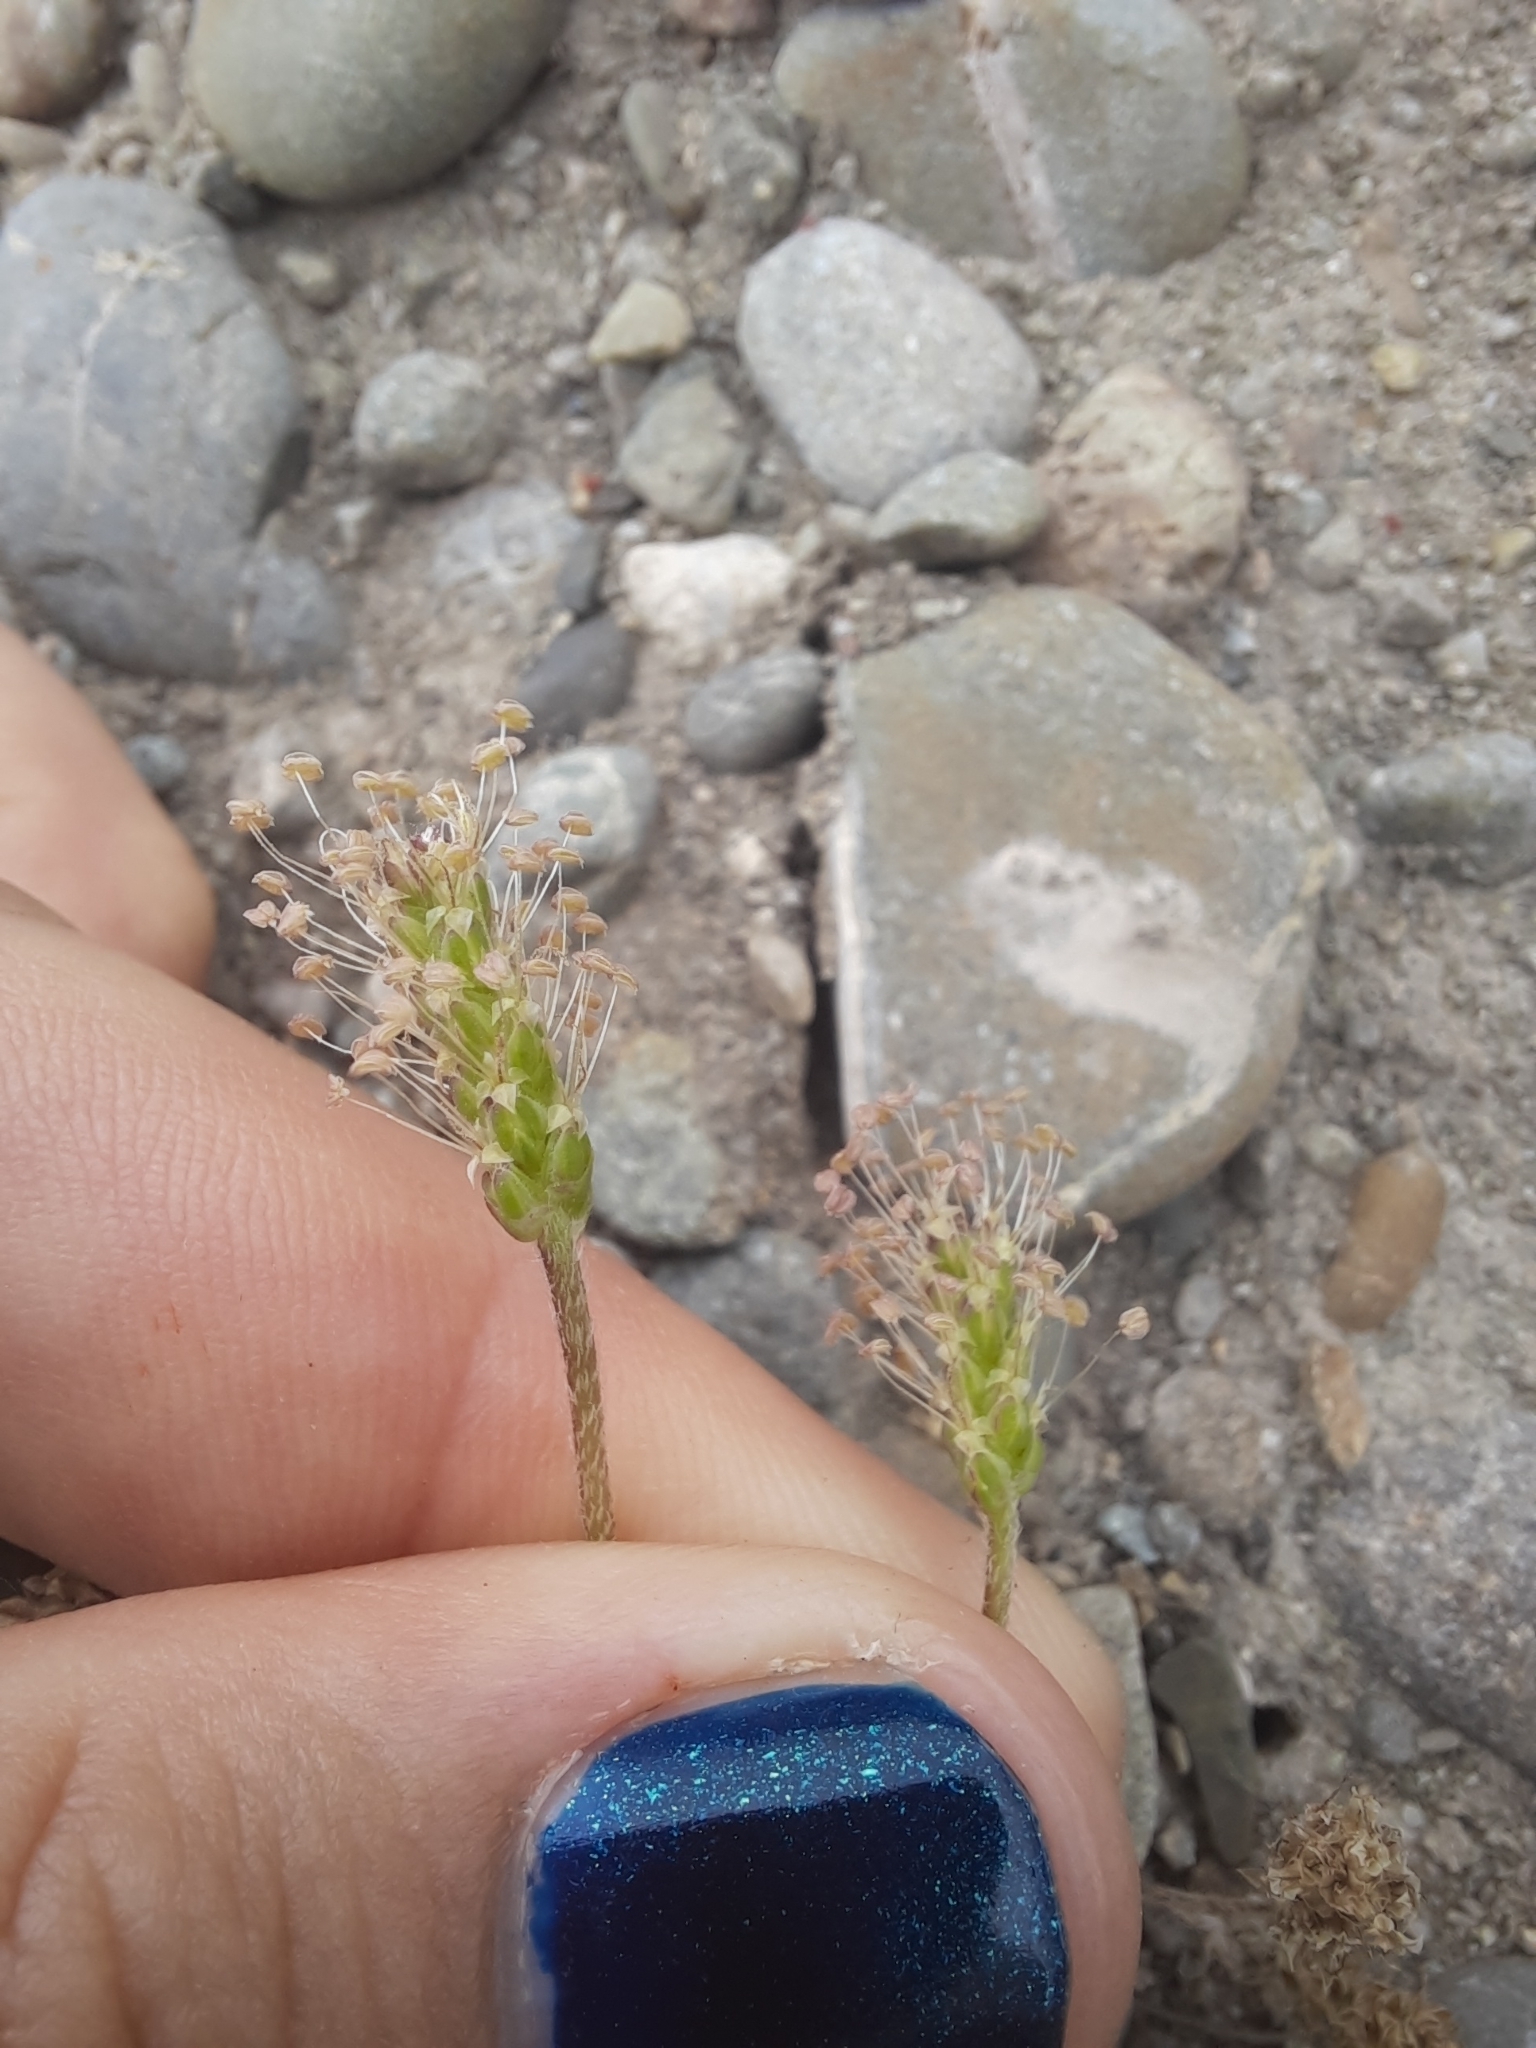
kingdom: Plantae
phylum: Tracheophyta
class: Magnoliopsida
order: Lamiales
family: Plantaginaceae
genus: Plantago
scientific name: Plantago coronopus
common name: Buck's-horn plantain
